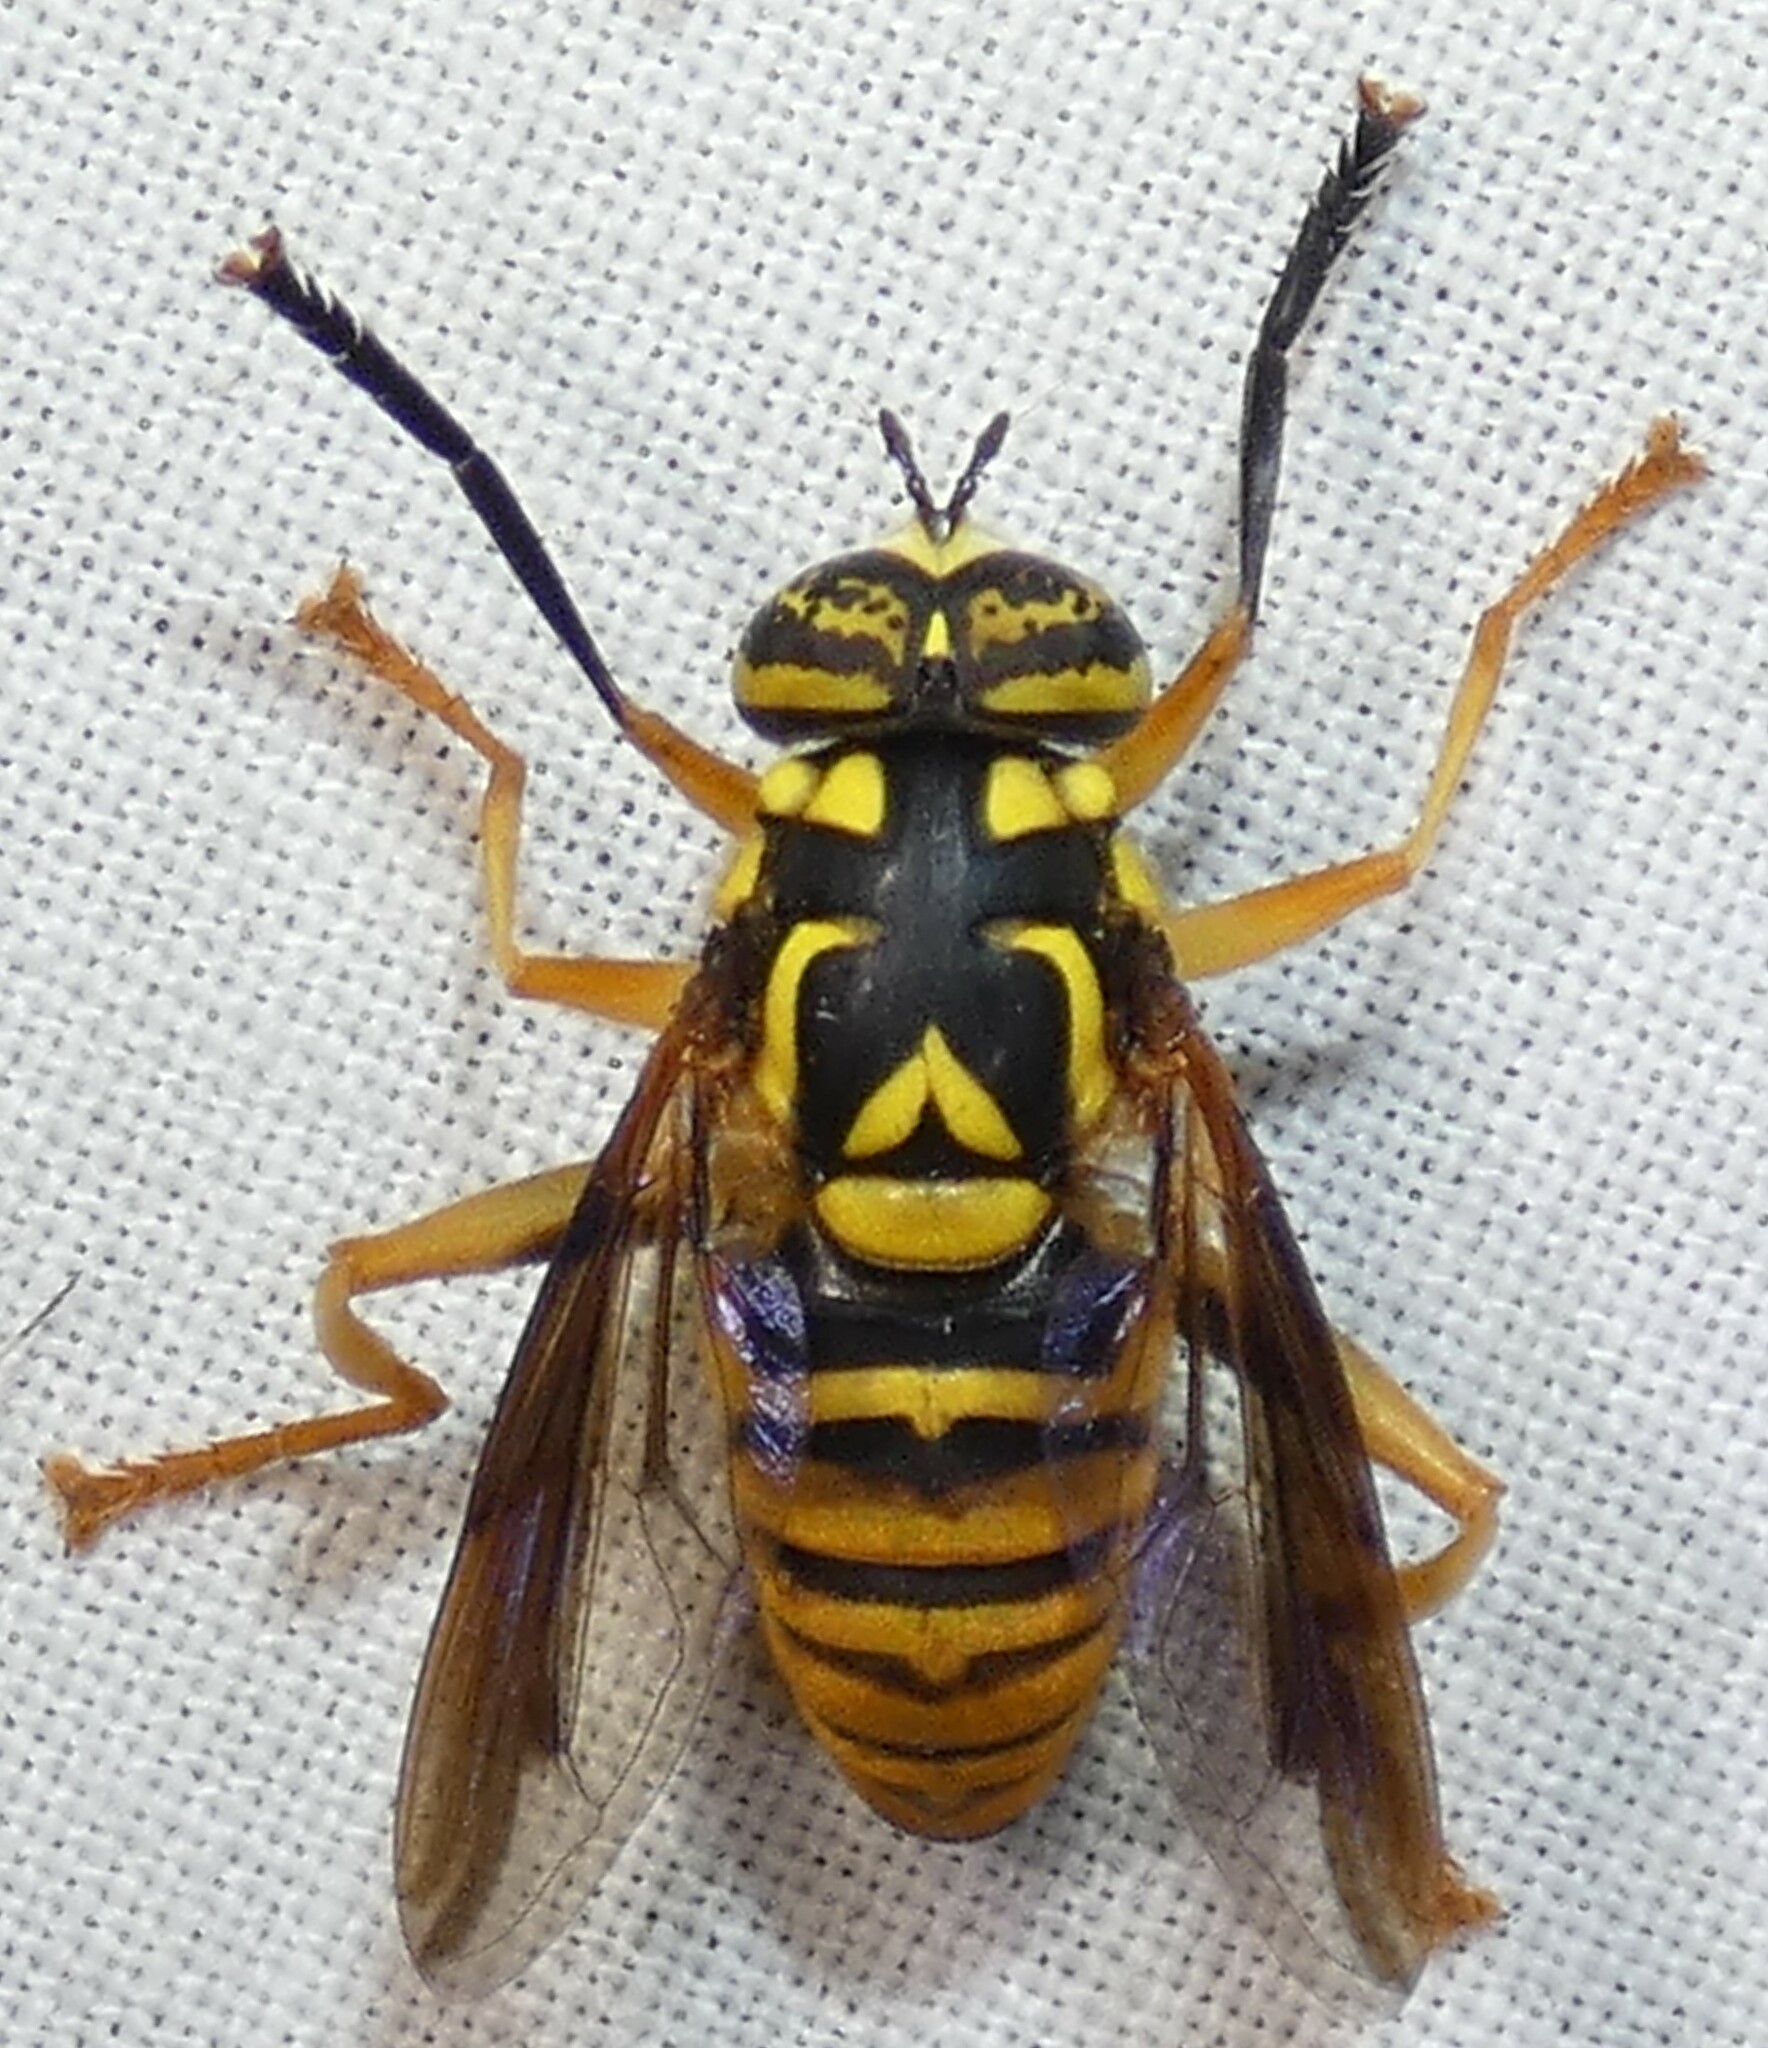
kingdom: Animalia
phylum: Arthropoda
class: Insecta
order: Diptera
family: Syrphidae
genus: Spilomyia
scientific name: Spilomyia
